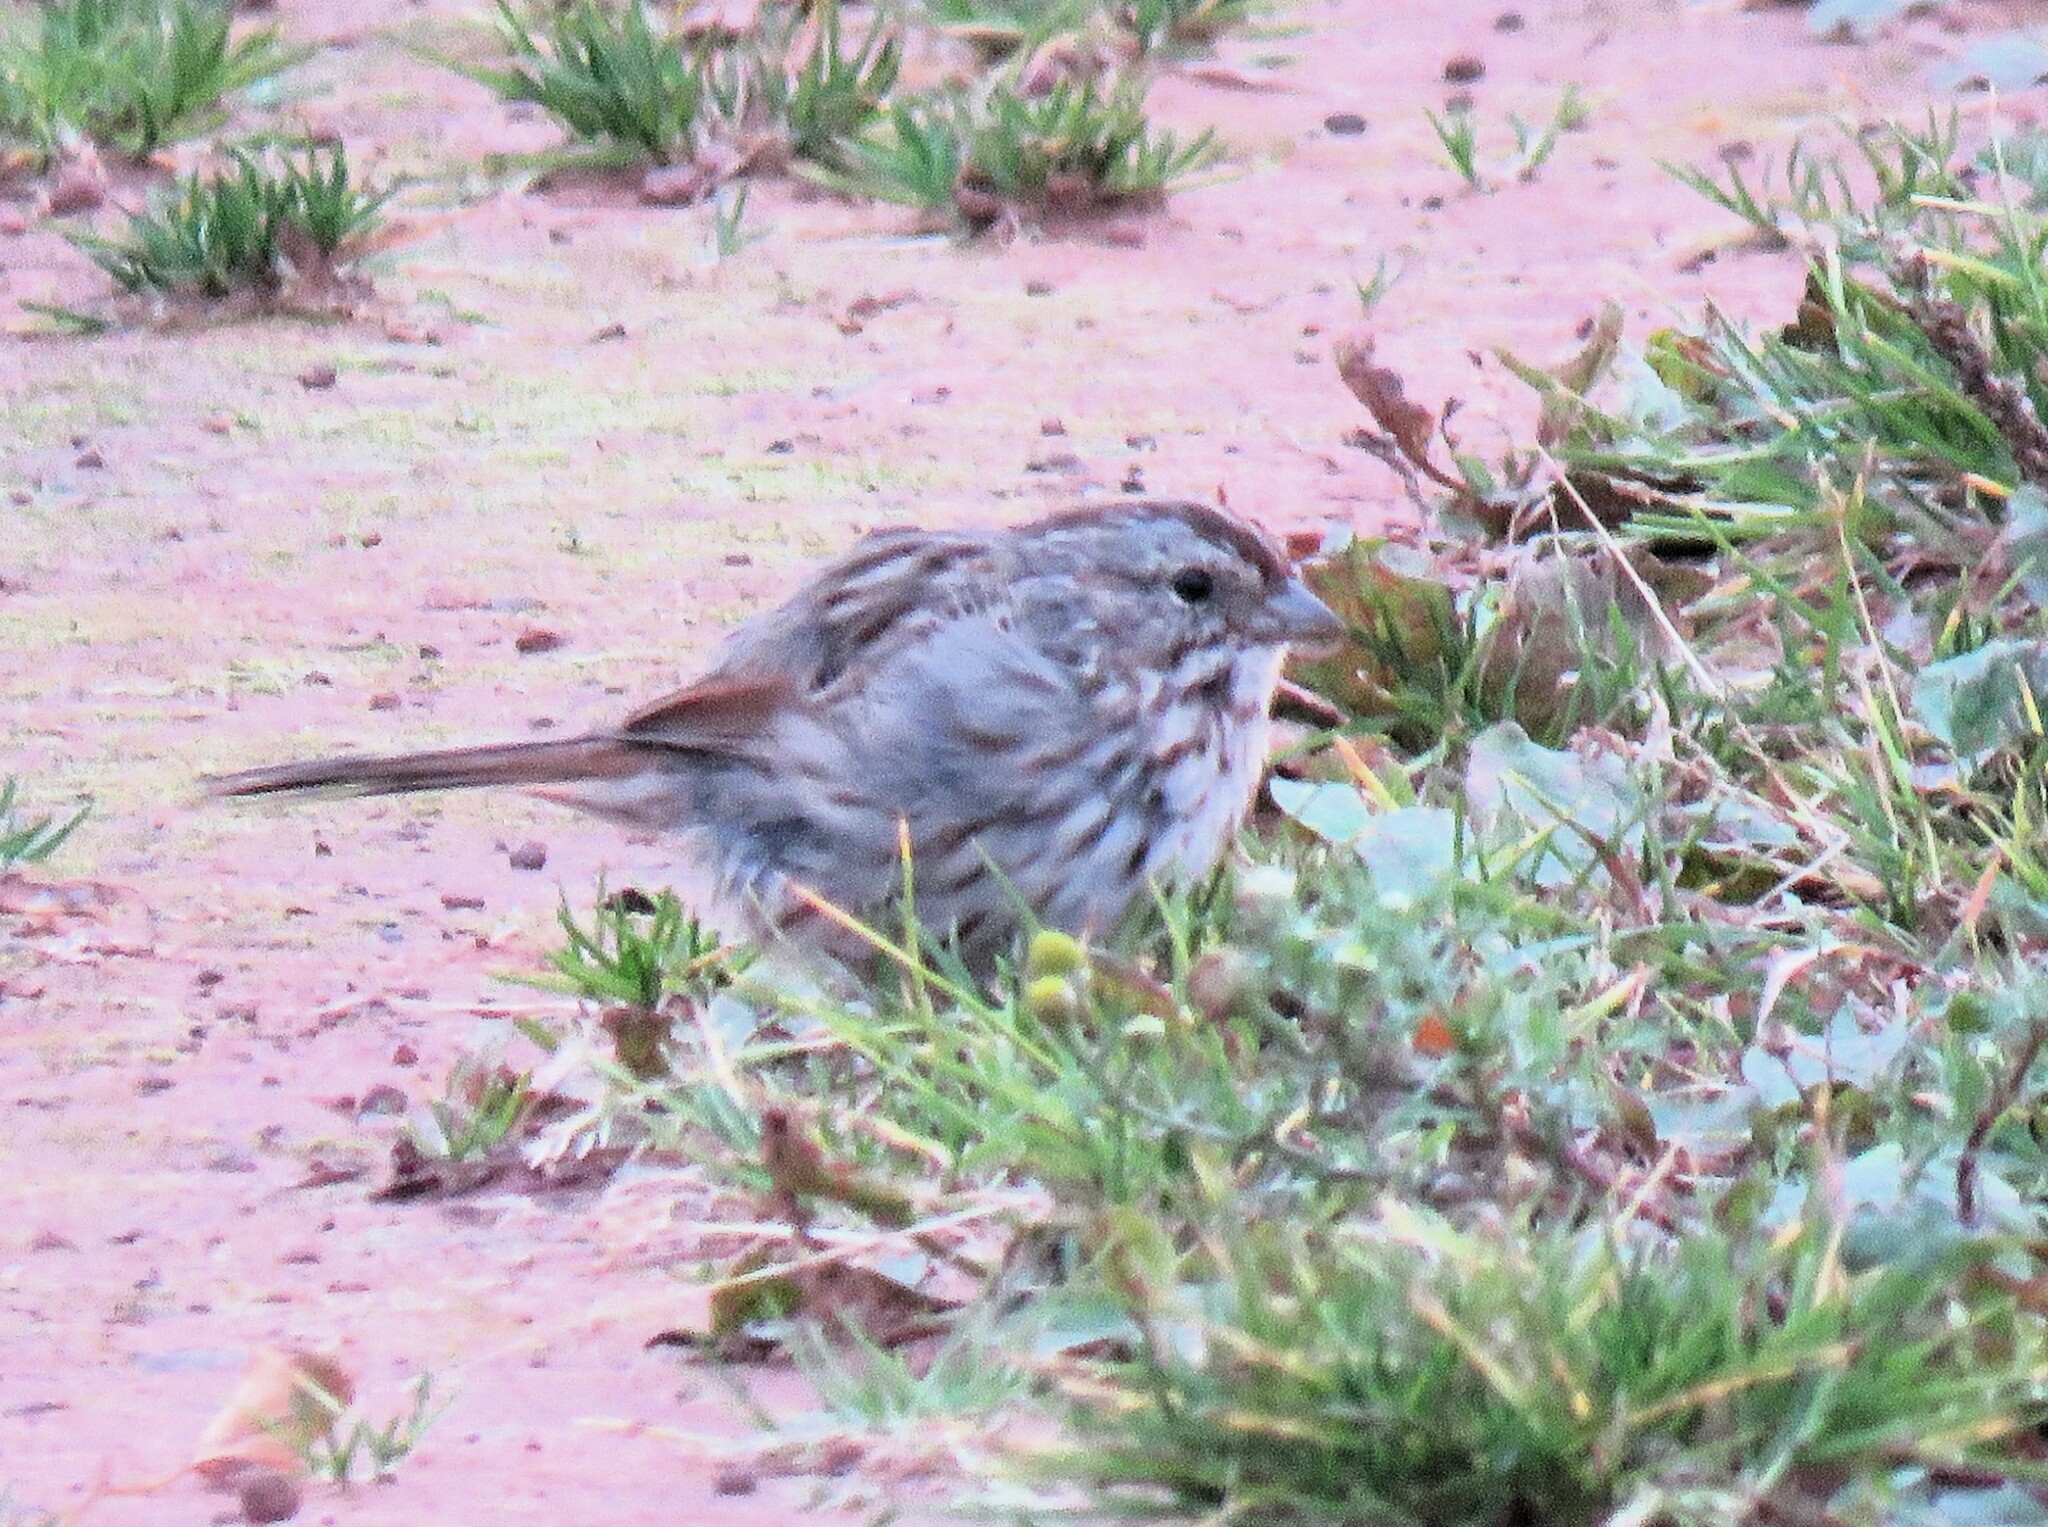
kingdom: Animalia
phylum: Chordata
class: Aves
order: Passeriformes
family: Passerellidae
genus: Melospiza
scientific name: Melospiza melodia
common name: Song sparrow
